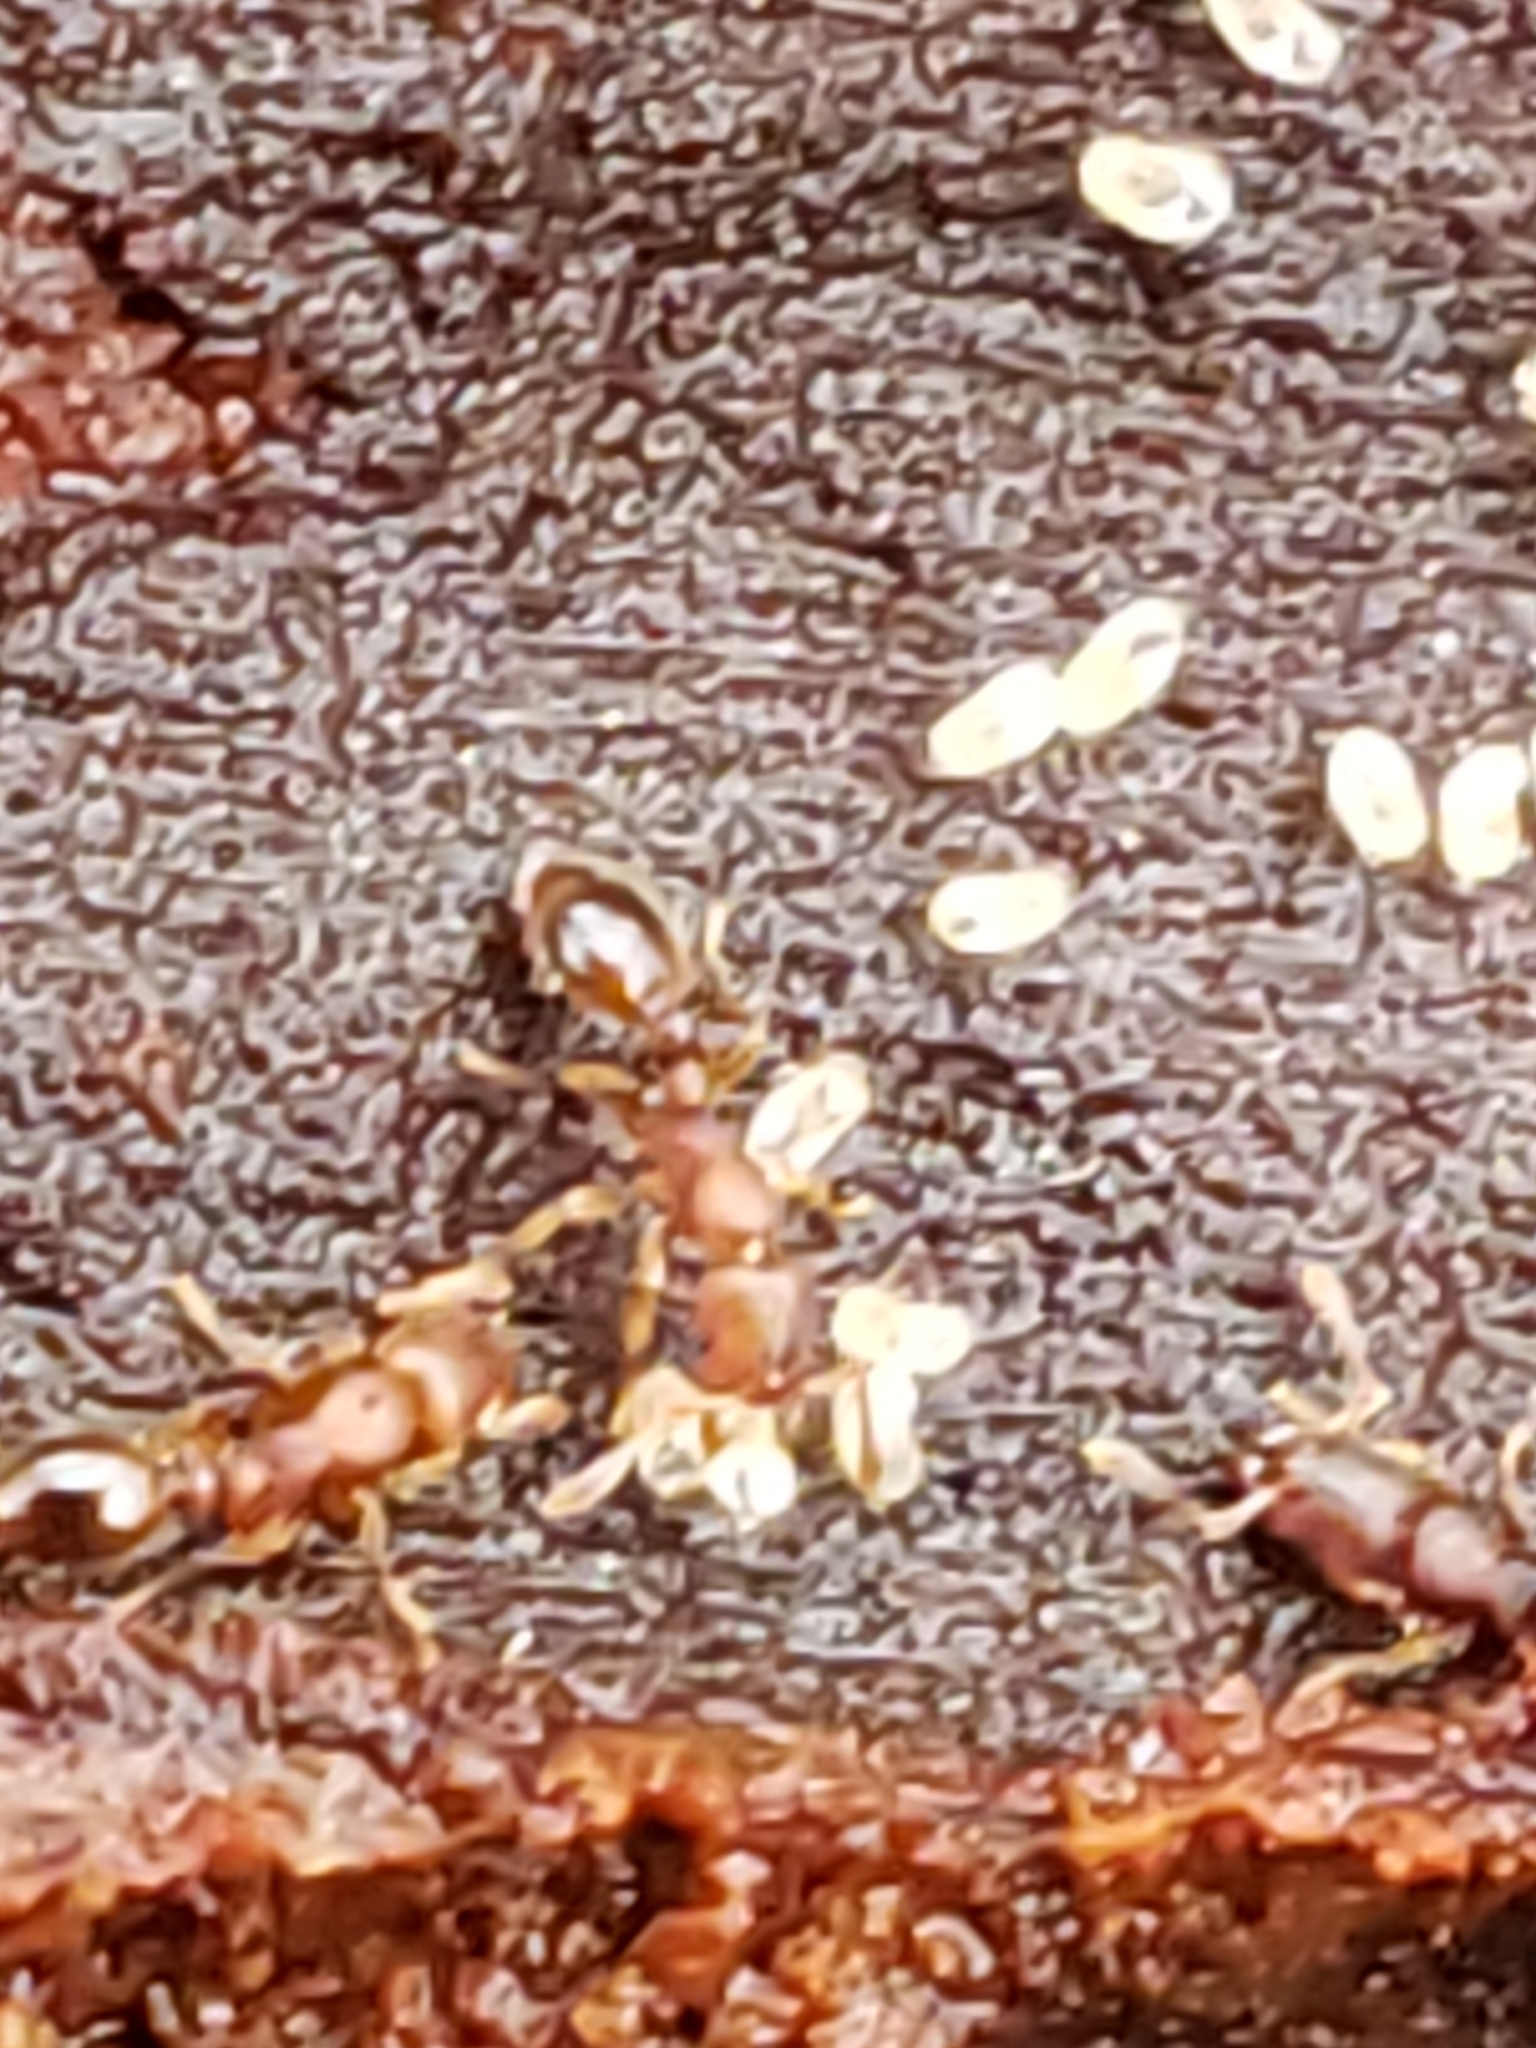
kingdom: Animalia
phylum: Arthropoda
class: Insecta
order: Hymenoptera
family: Formicidae
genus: Vollenhovia
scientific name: Vollenhovia emeryi
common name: Ant
